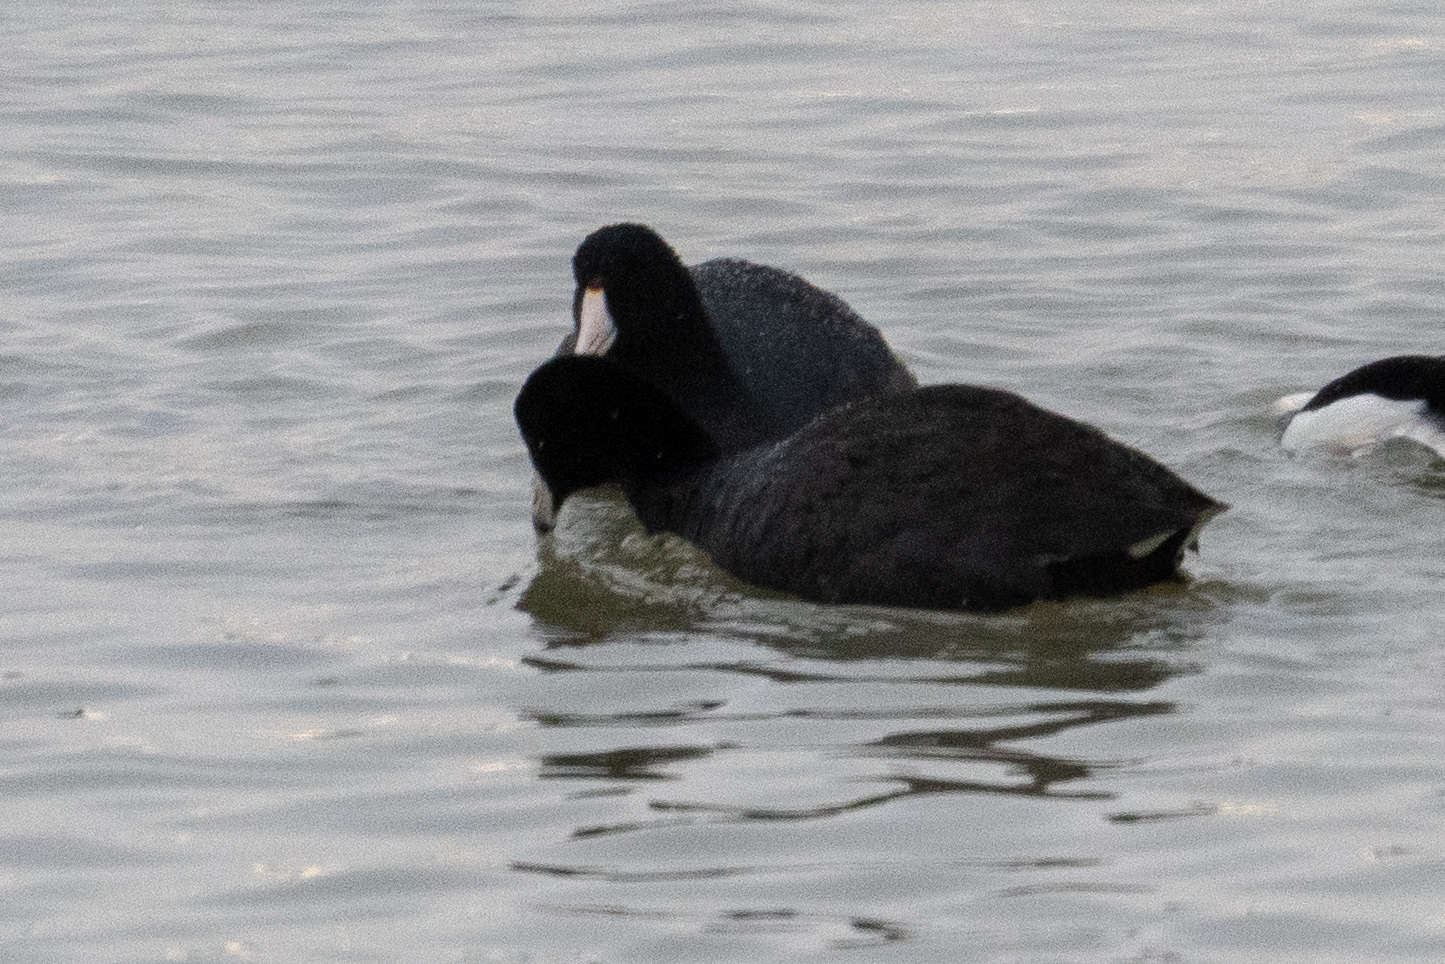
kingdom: Animalia
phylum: Chordata
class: Aves
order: Gruiformes
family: Rallidae
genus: Fulica
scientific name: Fulica americana
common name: American coot
